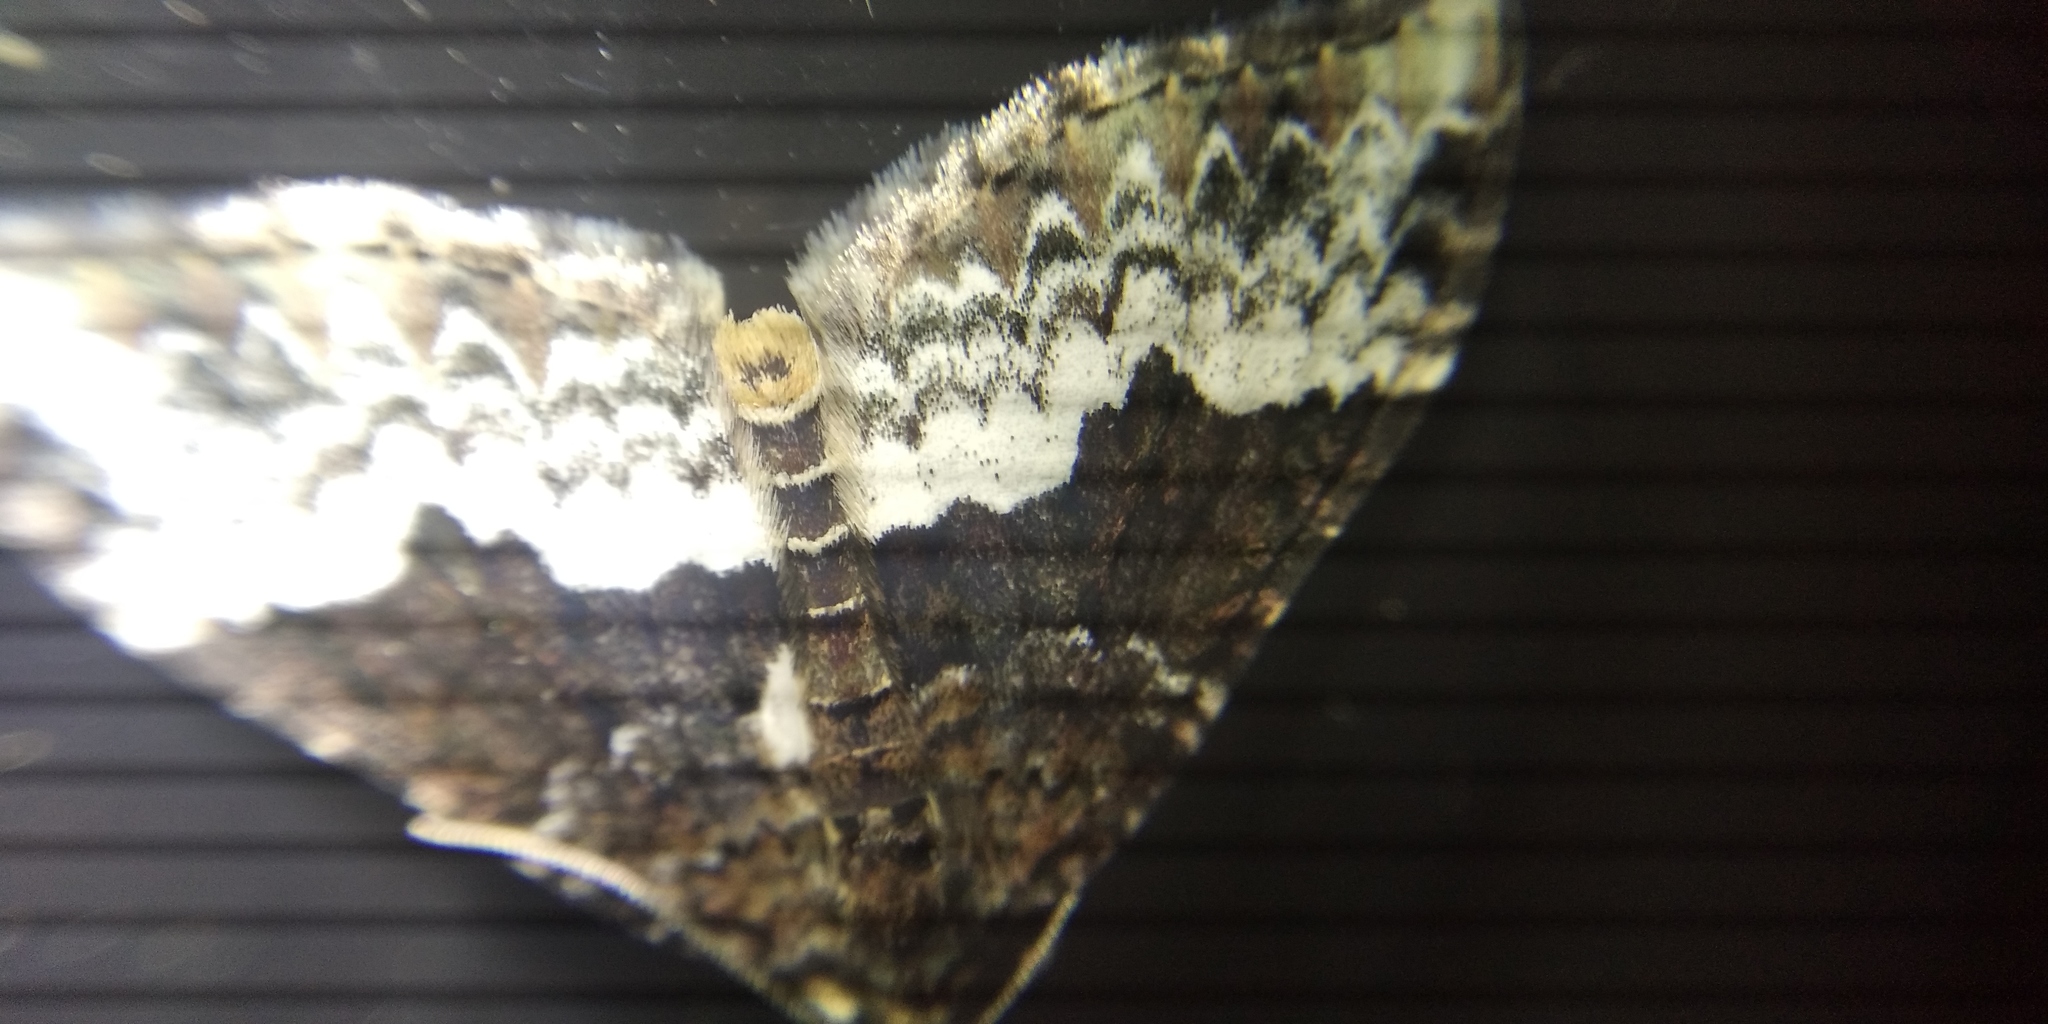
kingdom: Animalia
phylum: Arthropoda
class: Insecta
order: Lepidoptera
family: Geometridae
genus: Euphyia
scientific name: Euphyia biangulata
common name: Cloaked carpet
